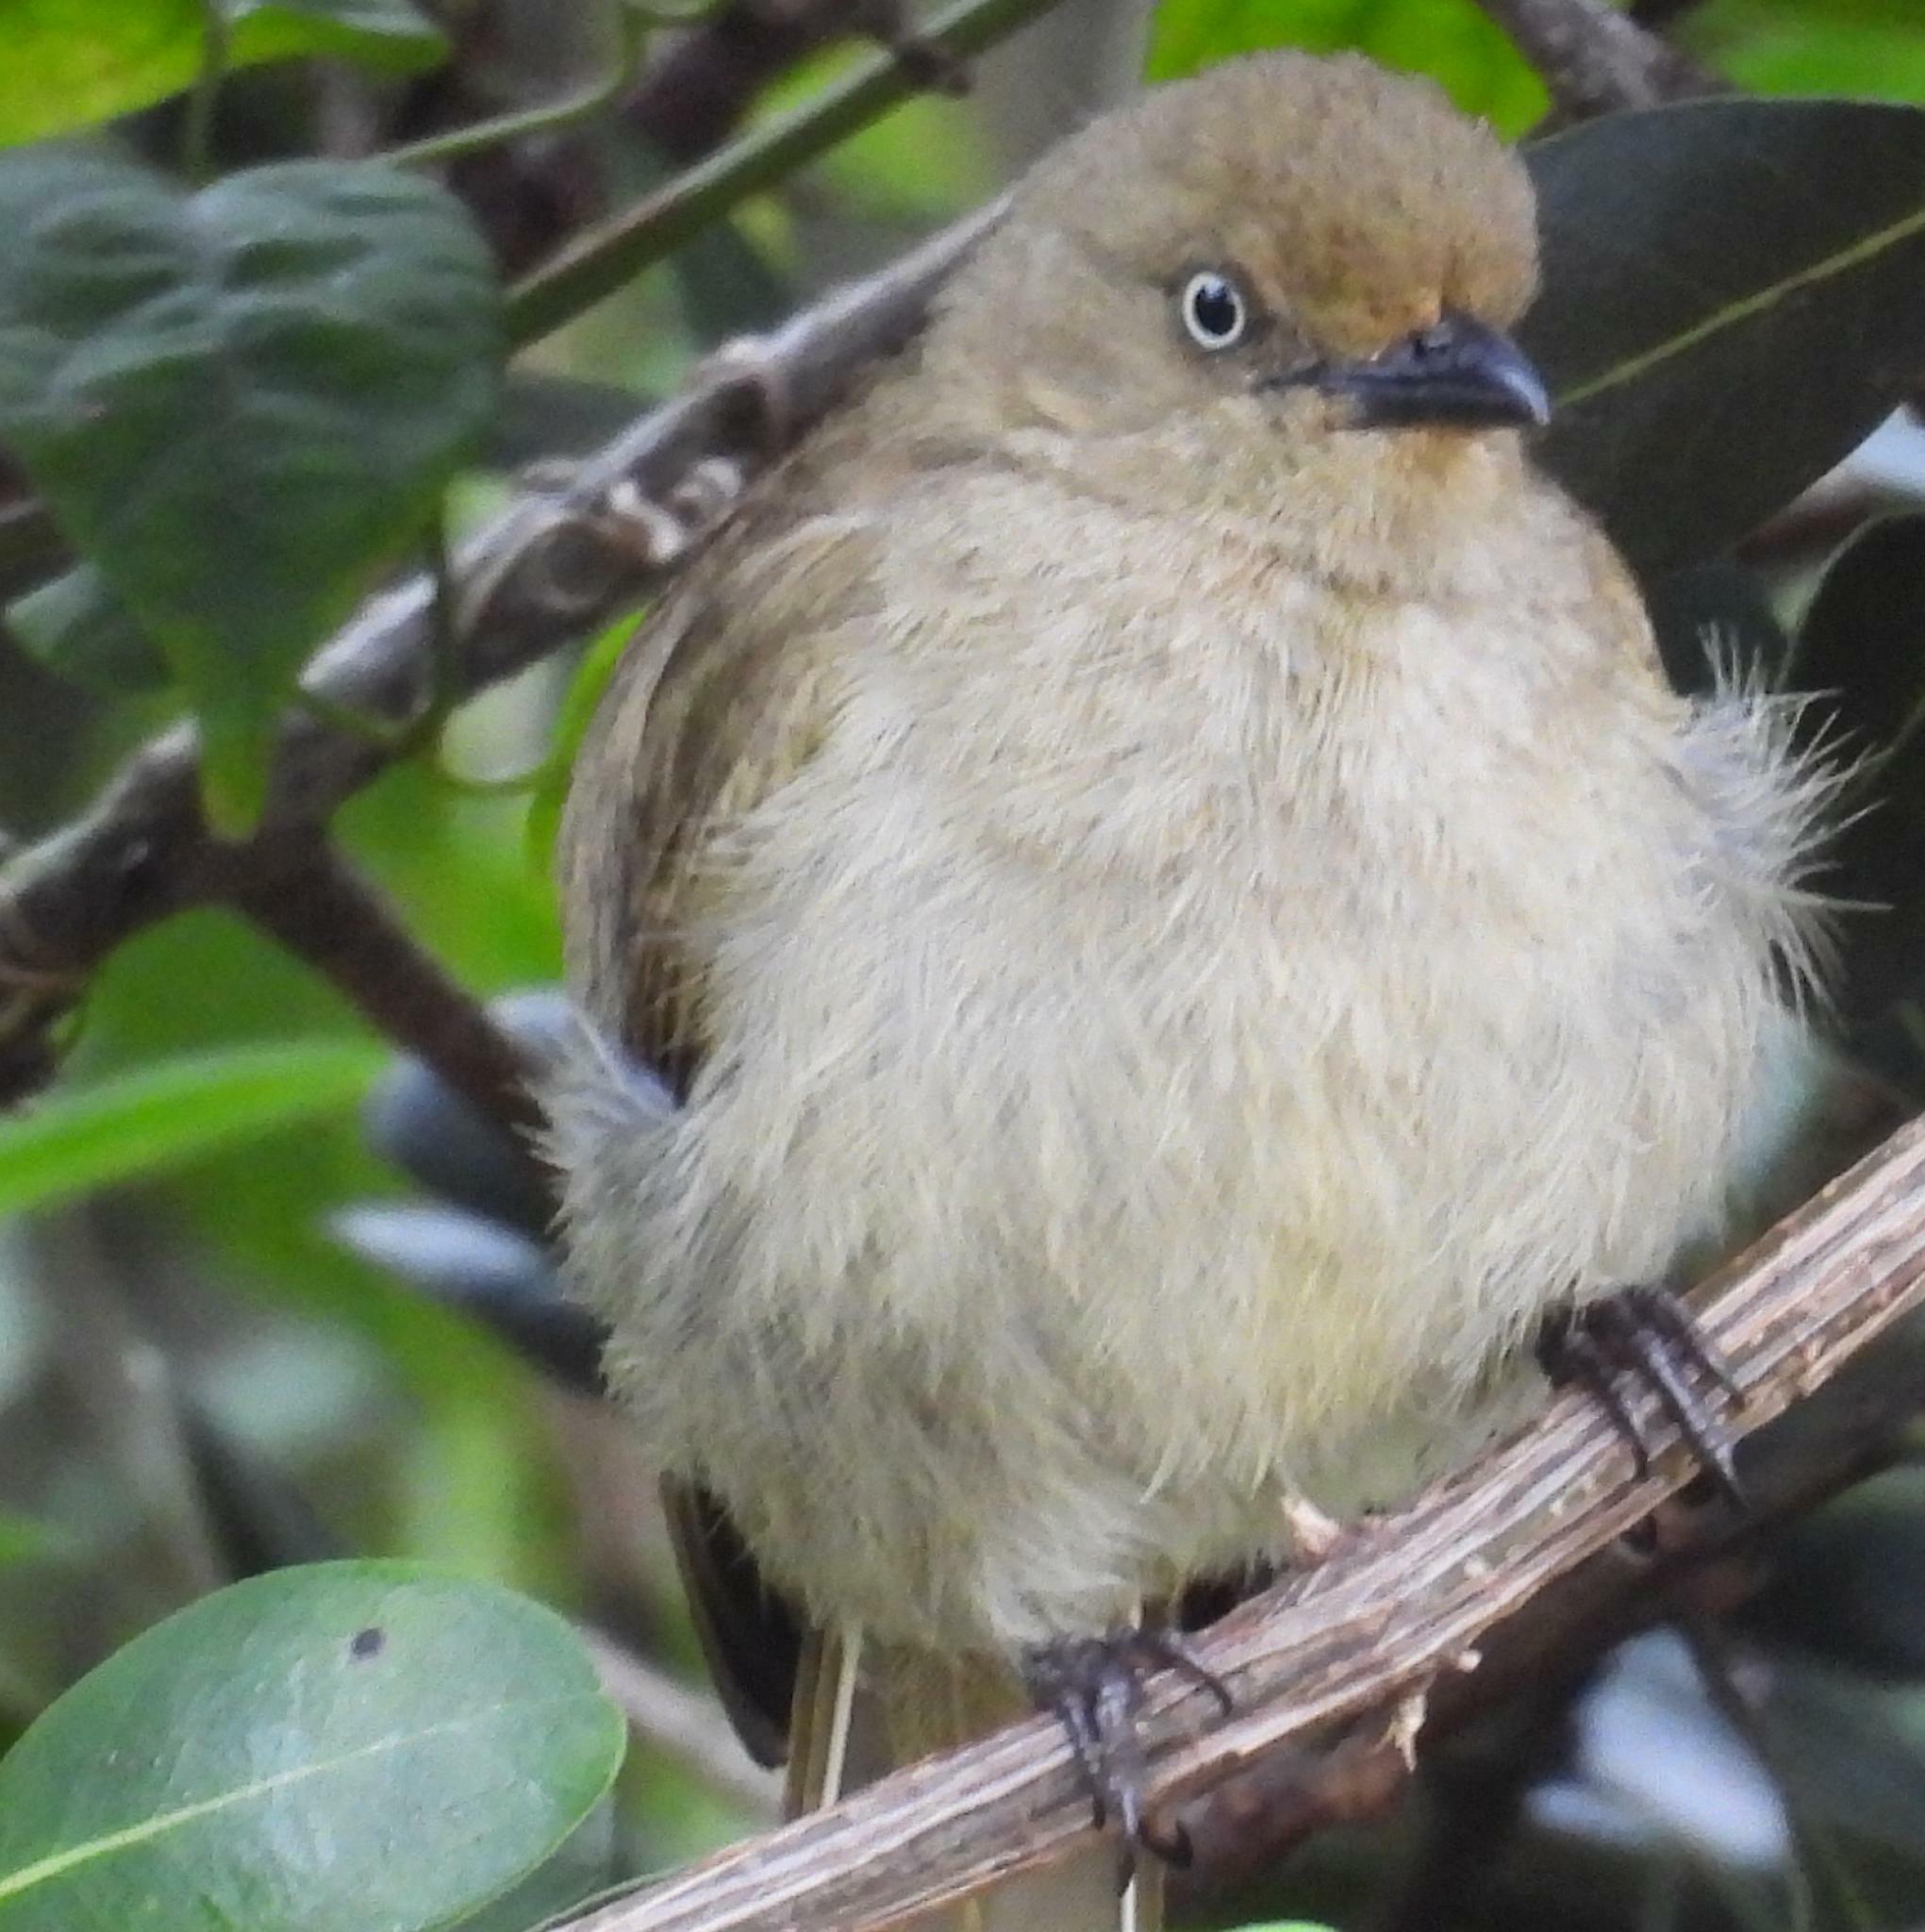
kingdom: Animalia
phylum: Chordata
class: Aves
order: Passeriformes
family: Pycnonotidae
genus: Andropadus
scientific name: Andropadus importunus
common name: Sombre greenbul
